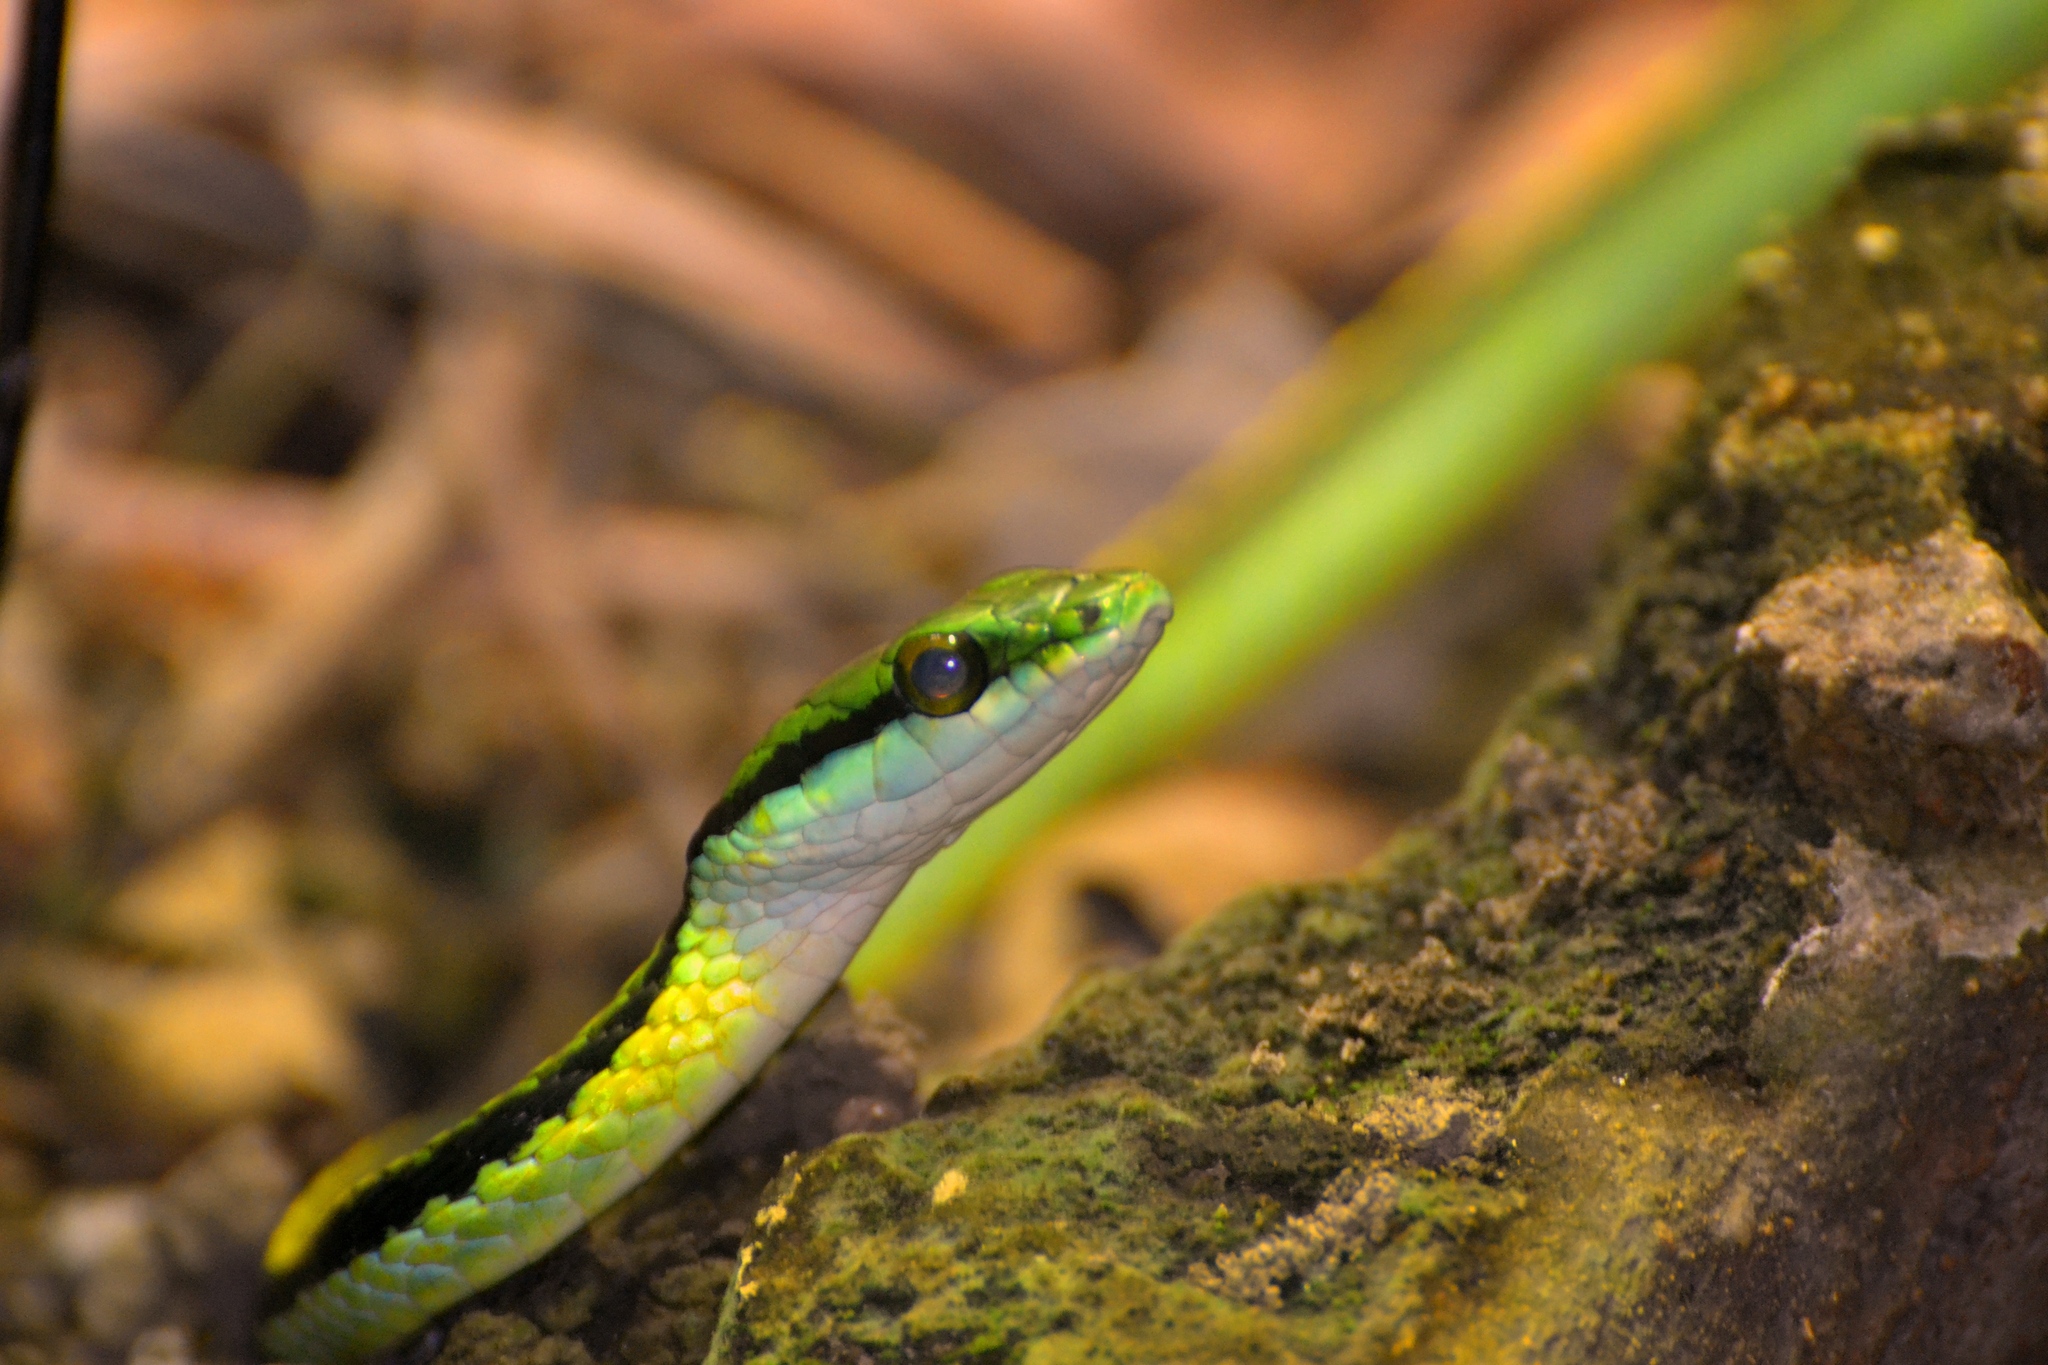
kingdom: Animalia
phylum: Chordata
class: Squamata
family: Colubridae
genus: Leptophis
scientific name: Leptophis diplotropis
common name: Pacific coast parrot snake
